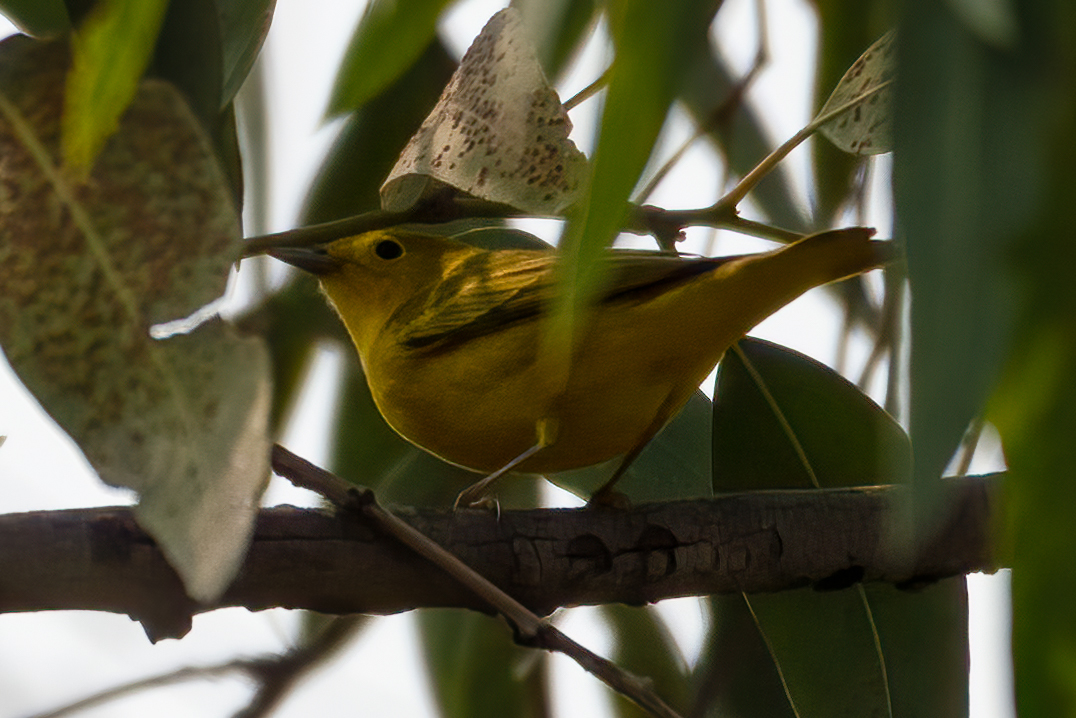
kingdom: Animalia
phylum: Chordata
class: Aves
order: Passeriformes
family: Parulidae
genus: Setophaga
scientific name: Setophaga petechia
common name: Yellow warbler
